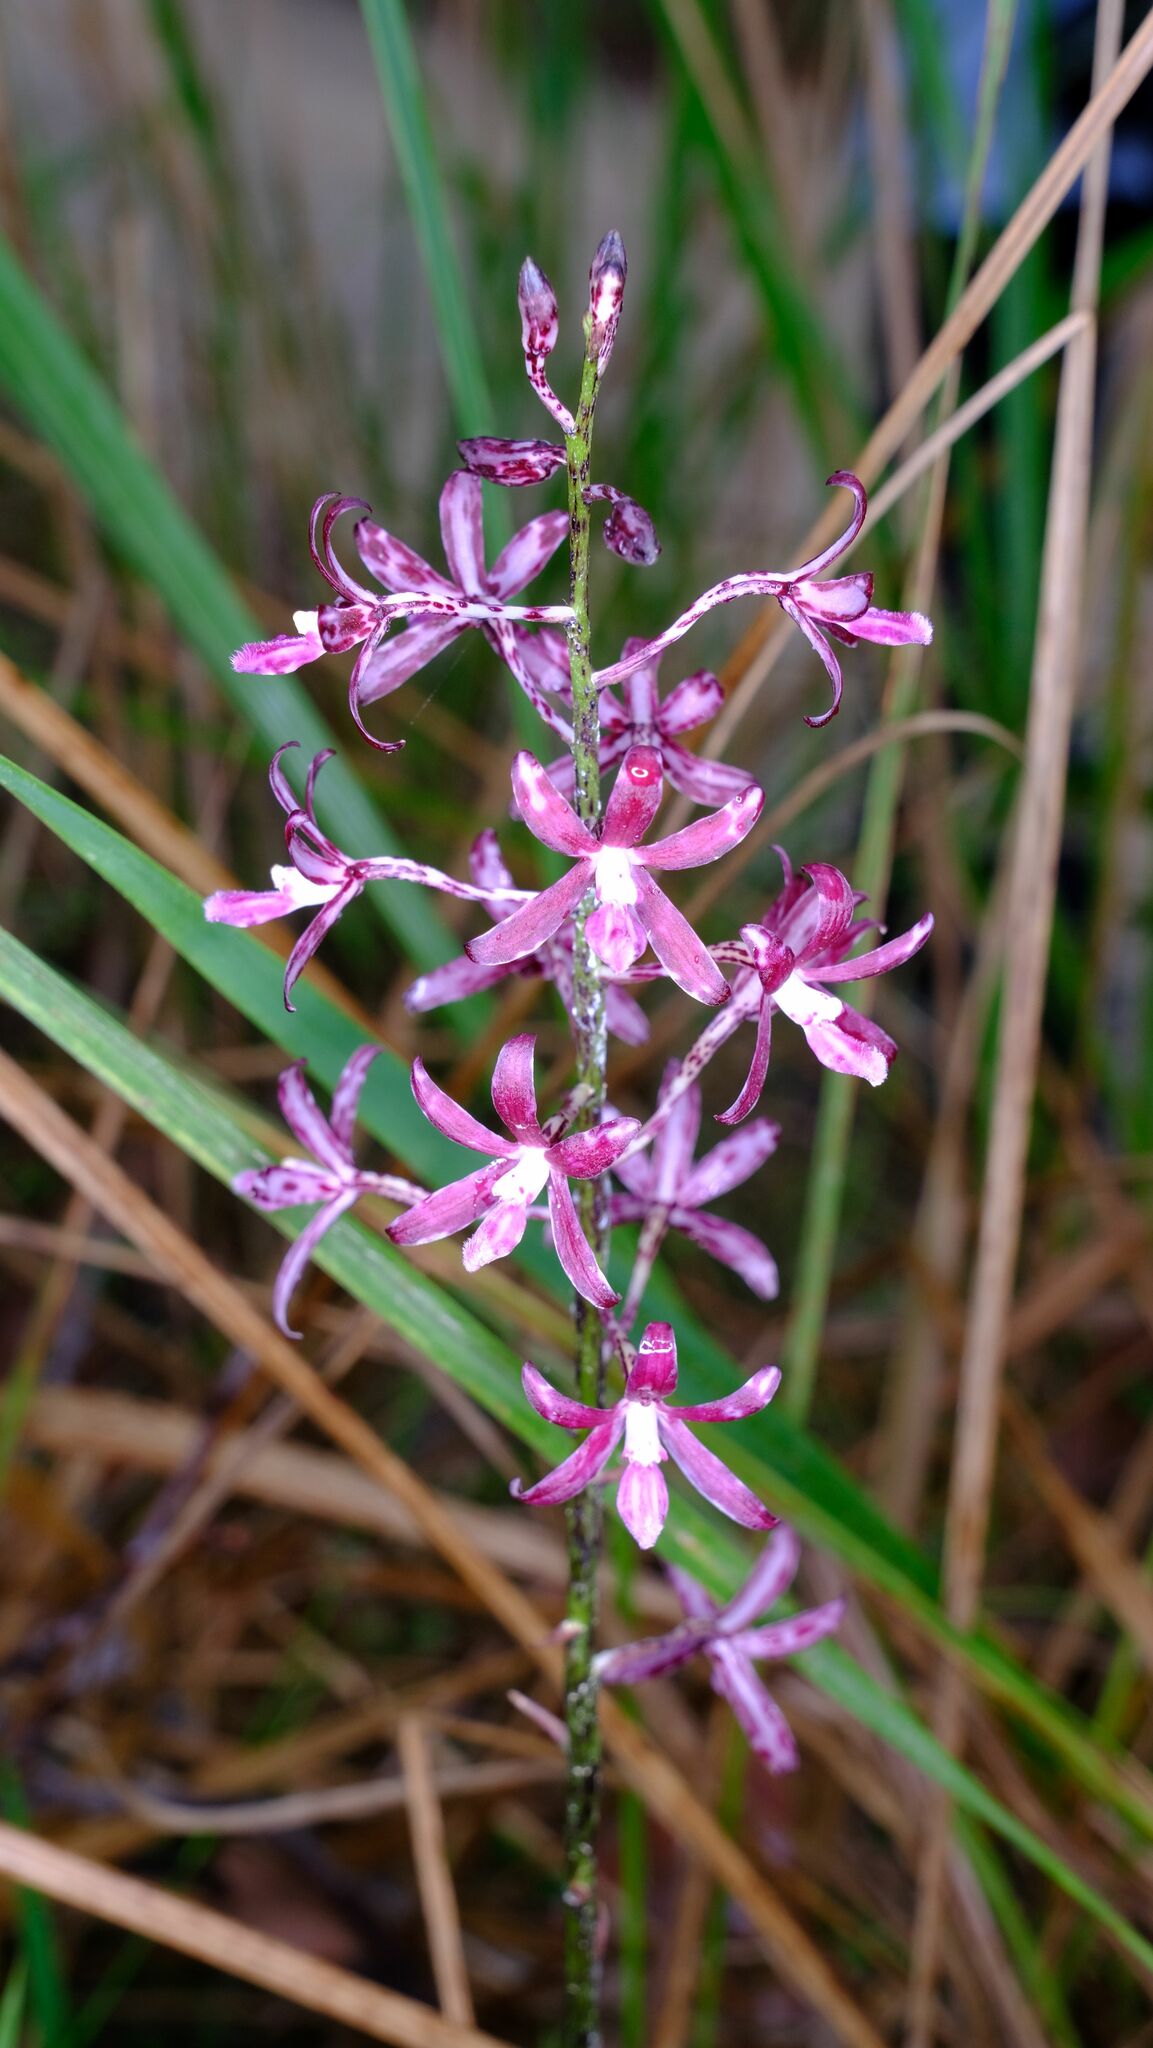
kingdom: Plantae
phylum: Tracheophyta
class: Liliopsida
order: Asparagales
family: Orchidaceae
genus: Dipodium
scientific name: Dipodium variegatum
